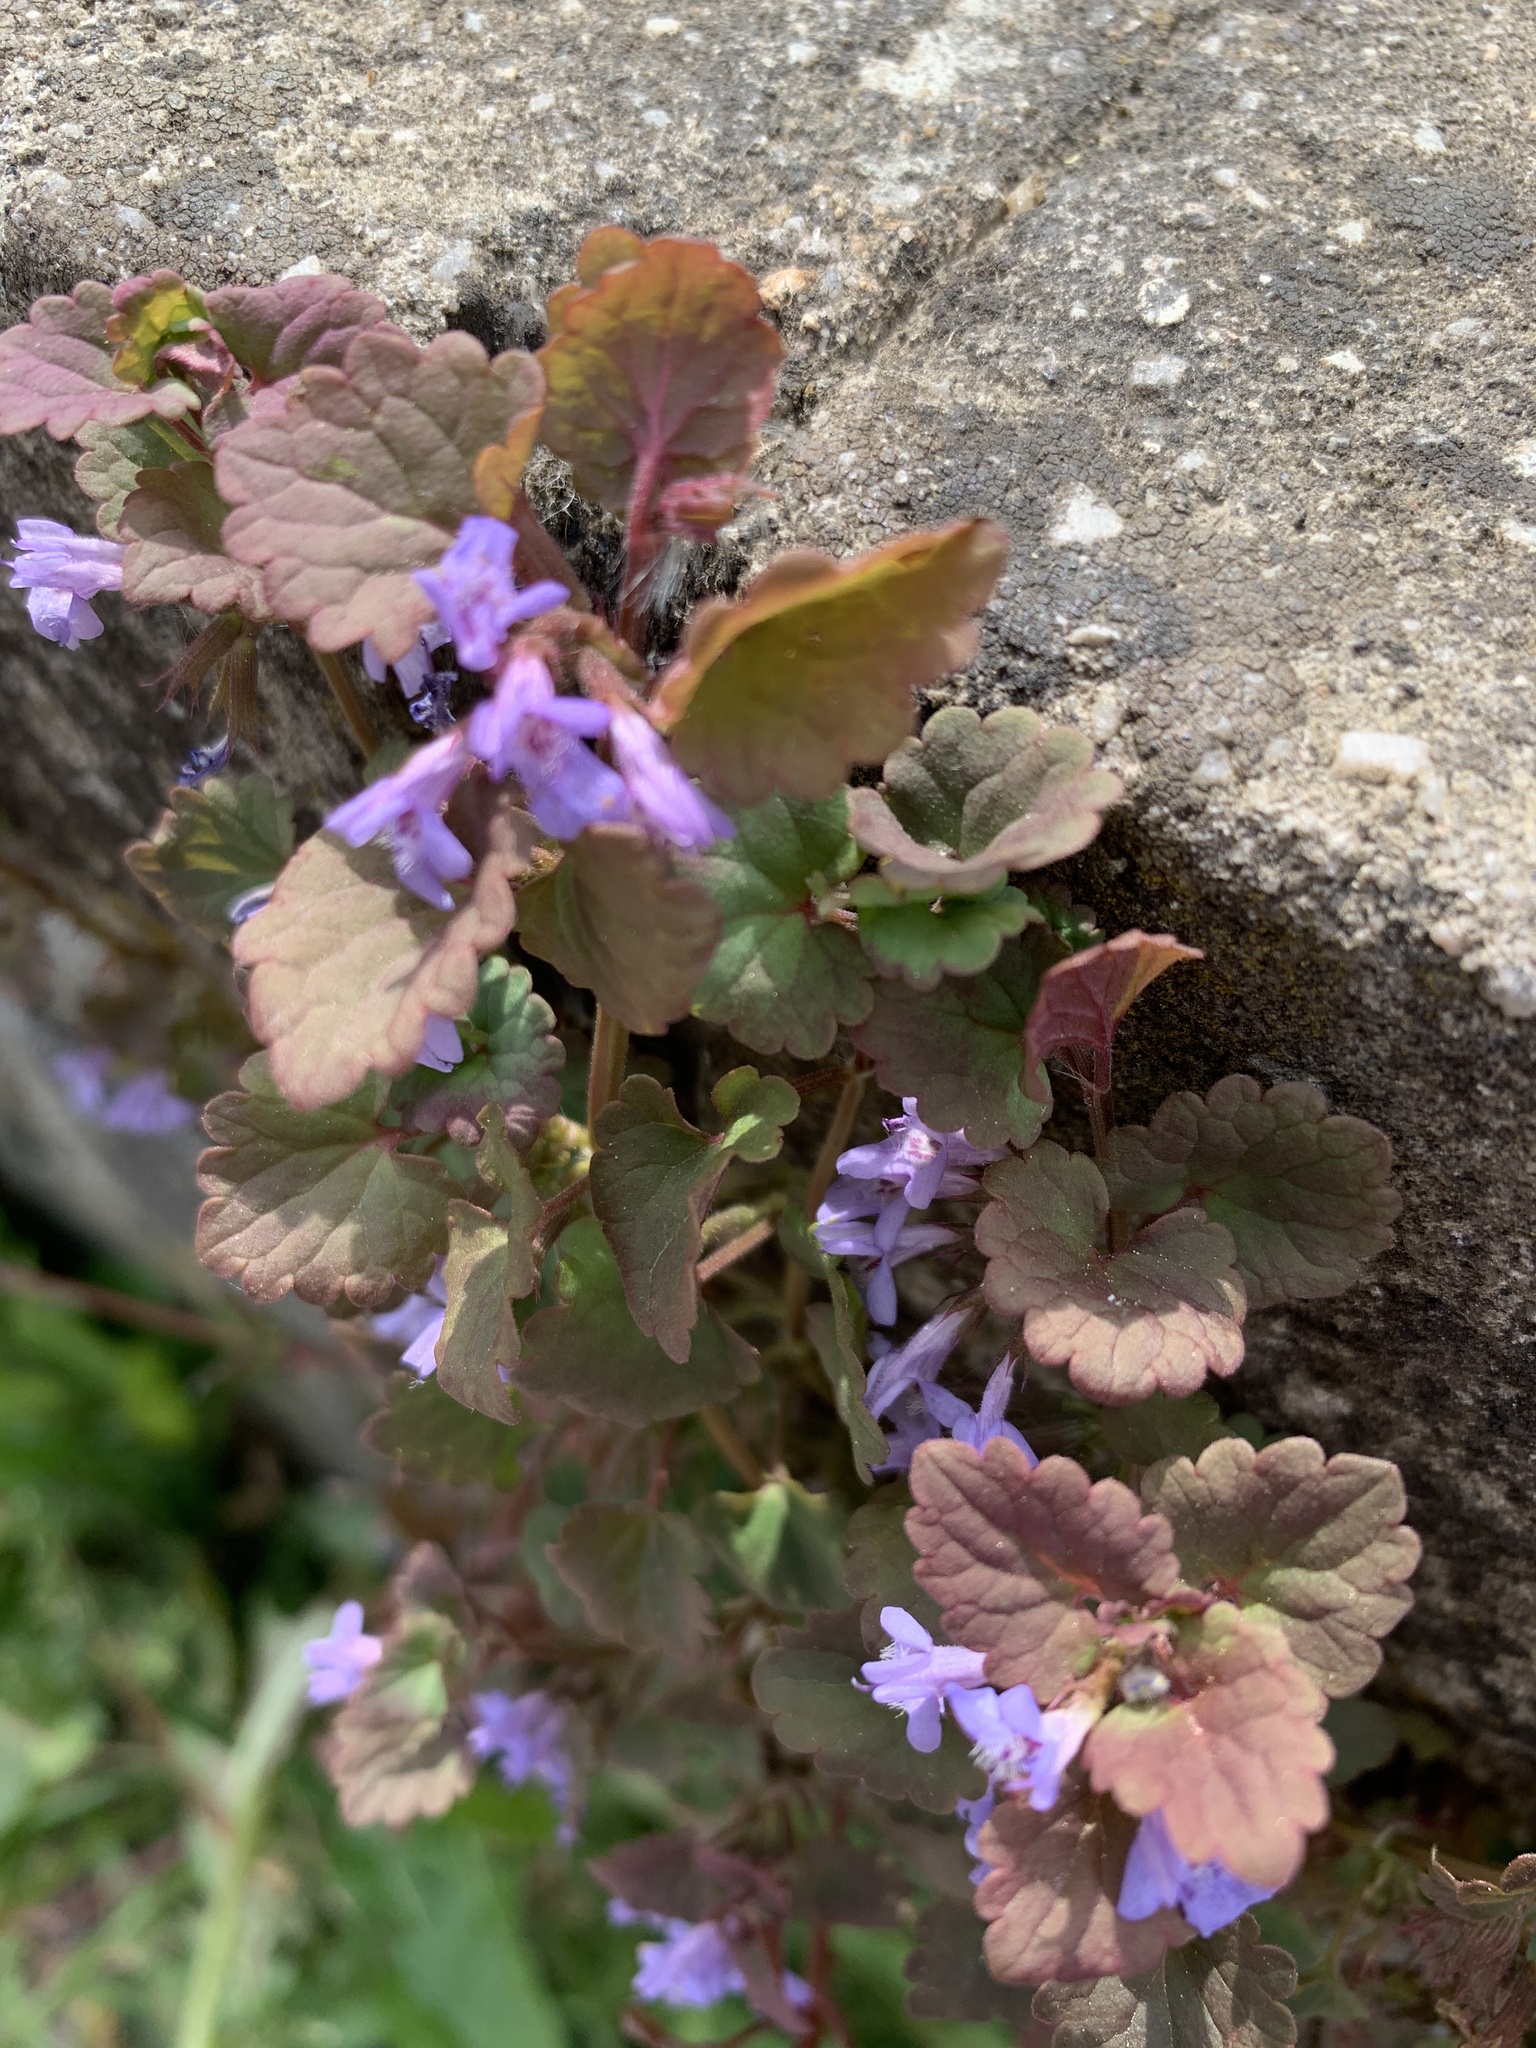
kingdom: Plantae
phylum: Tracheophyta
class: Magnoliopsida
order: Lamiales
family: Lamiaceae
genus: Glechoma
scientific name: Glechoma hederacea
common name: Ground ivy
